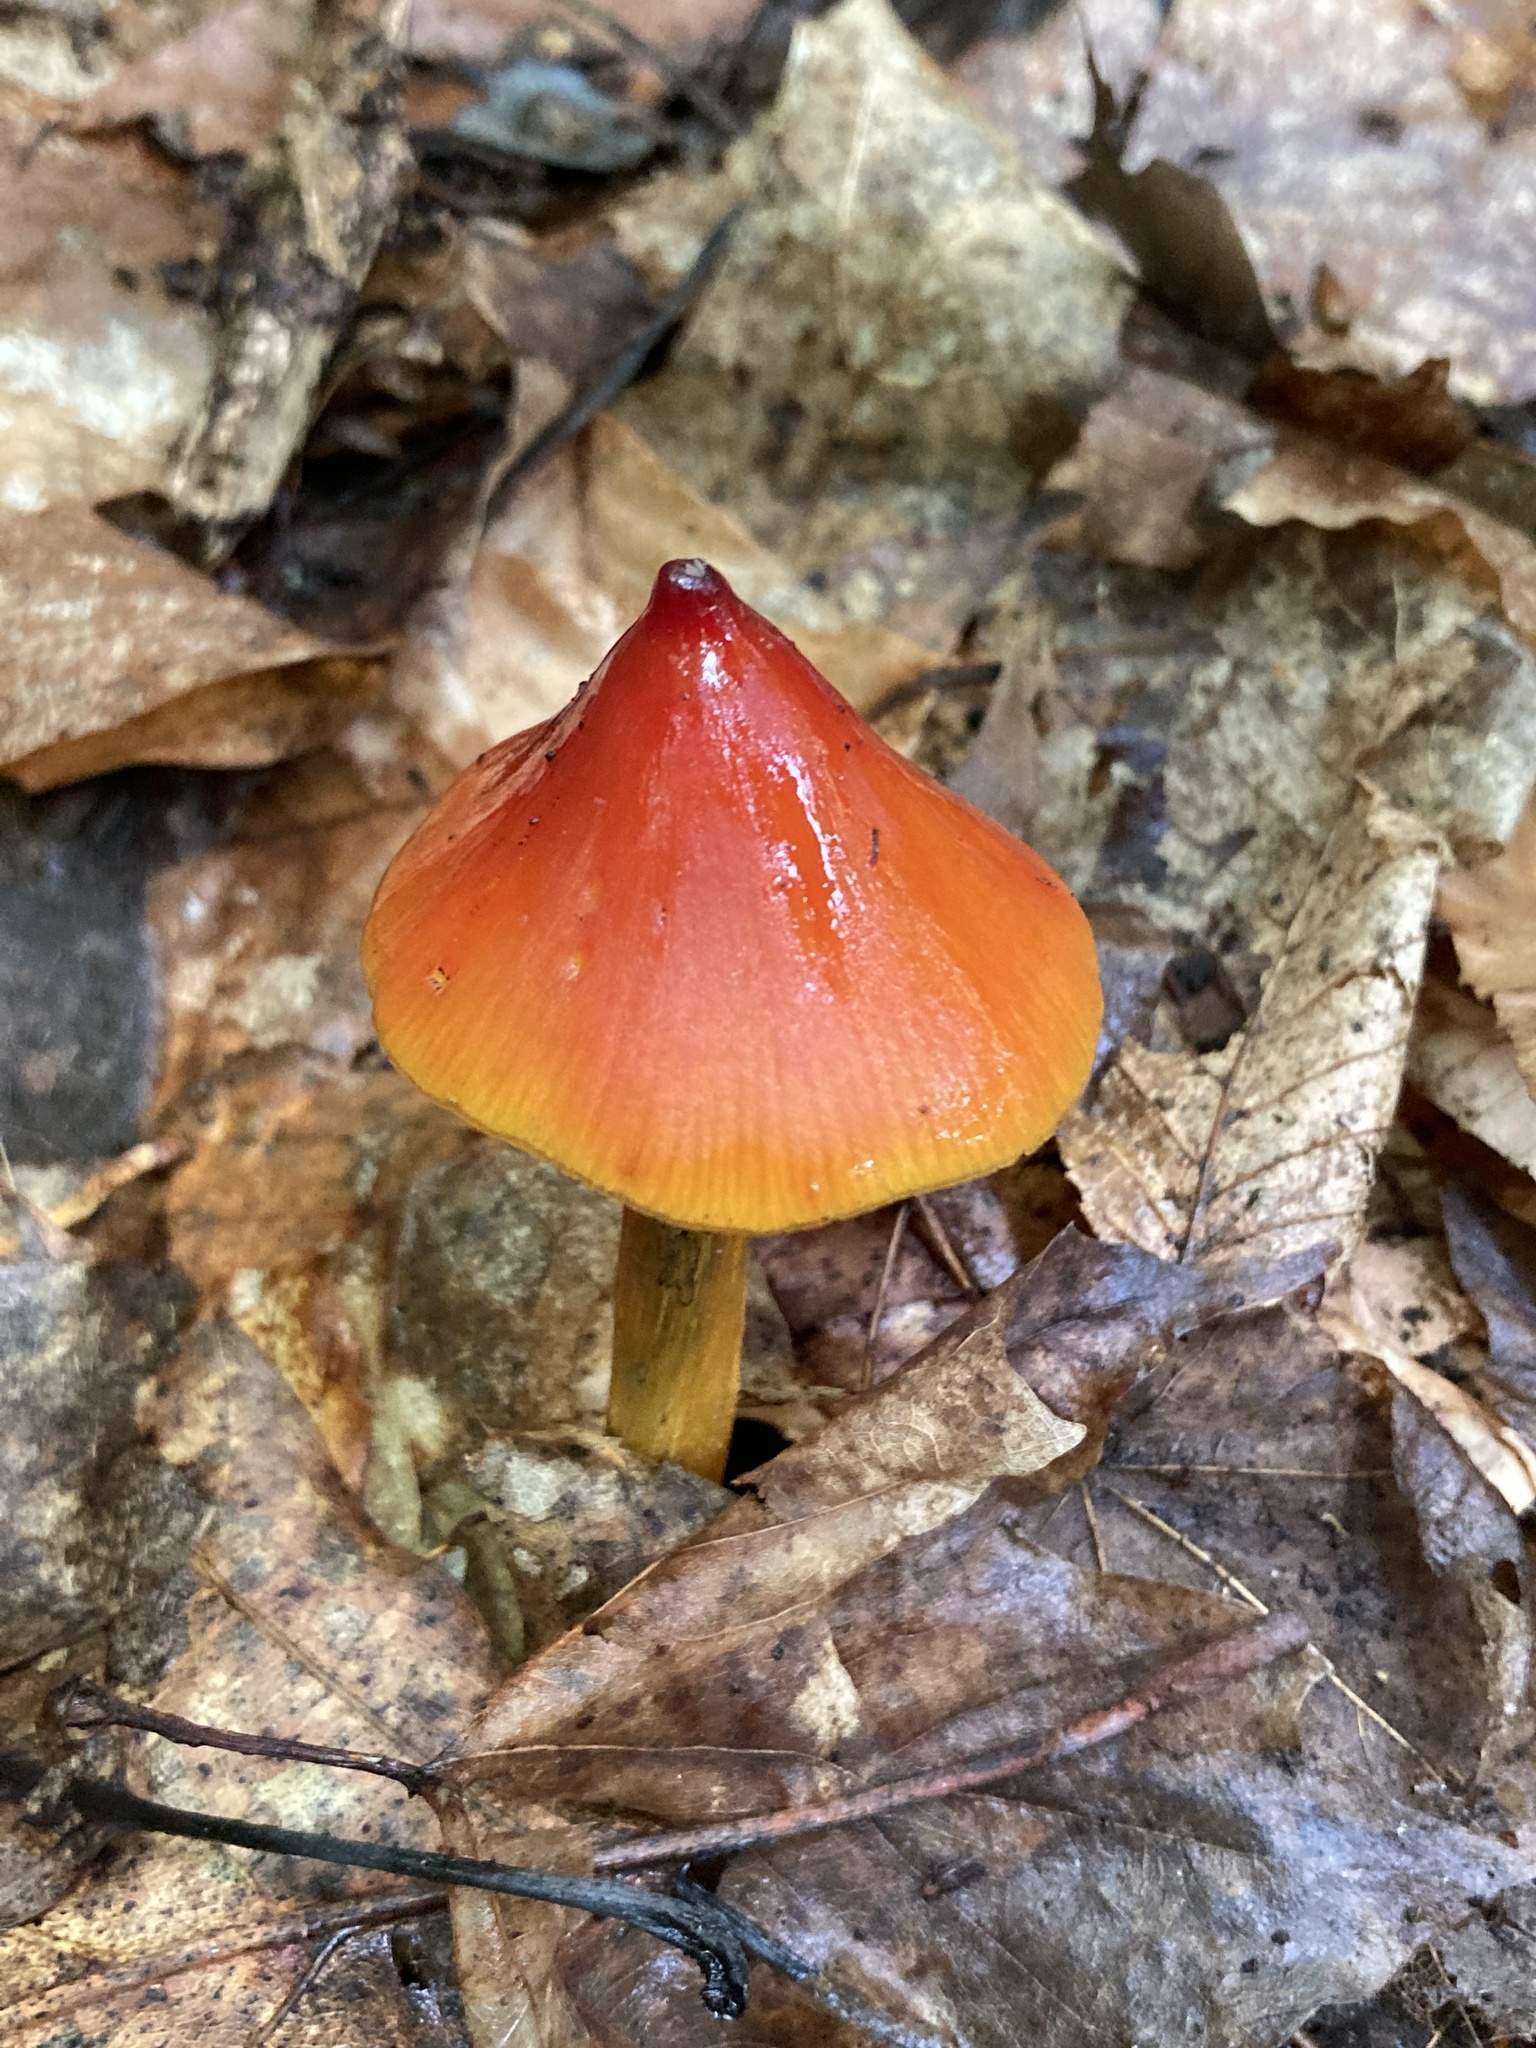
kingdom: Fungi
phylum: Basidiomycota
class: Agaricomycetes
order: Agaricales
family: Hygrophoraceae
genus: Hygrocybe
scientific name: Hygrocybe conica
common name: Blackening wax-cap
